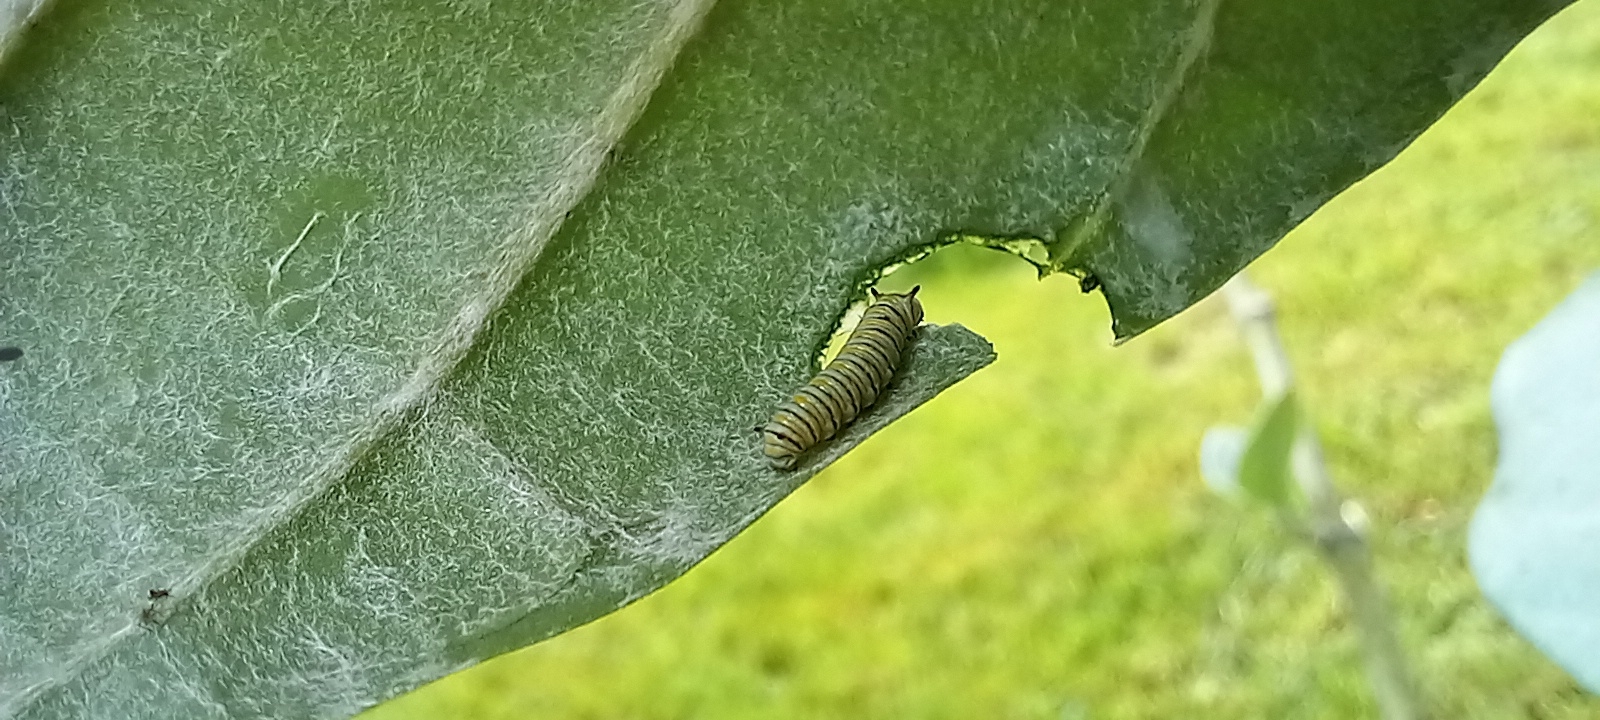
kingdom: Animalia
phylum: Arthropoda
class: Insecta
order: Lepidoptera
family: Nymphalidae
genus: Danaus
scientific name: Danaus plexippus
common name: Monarch
